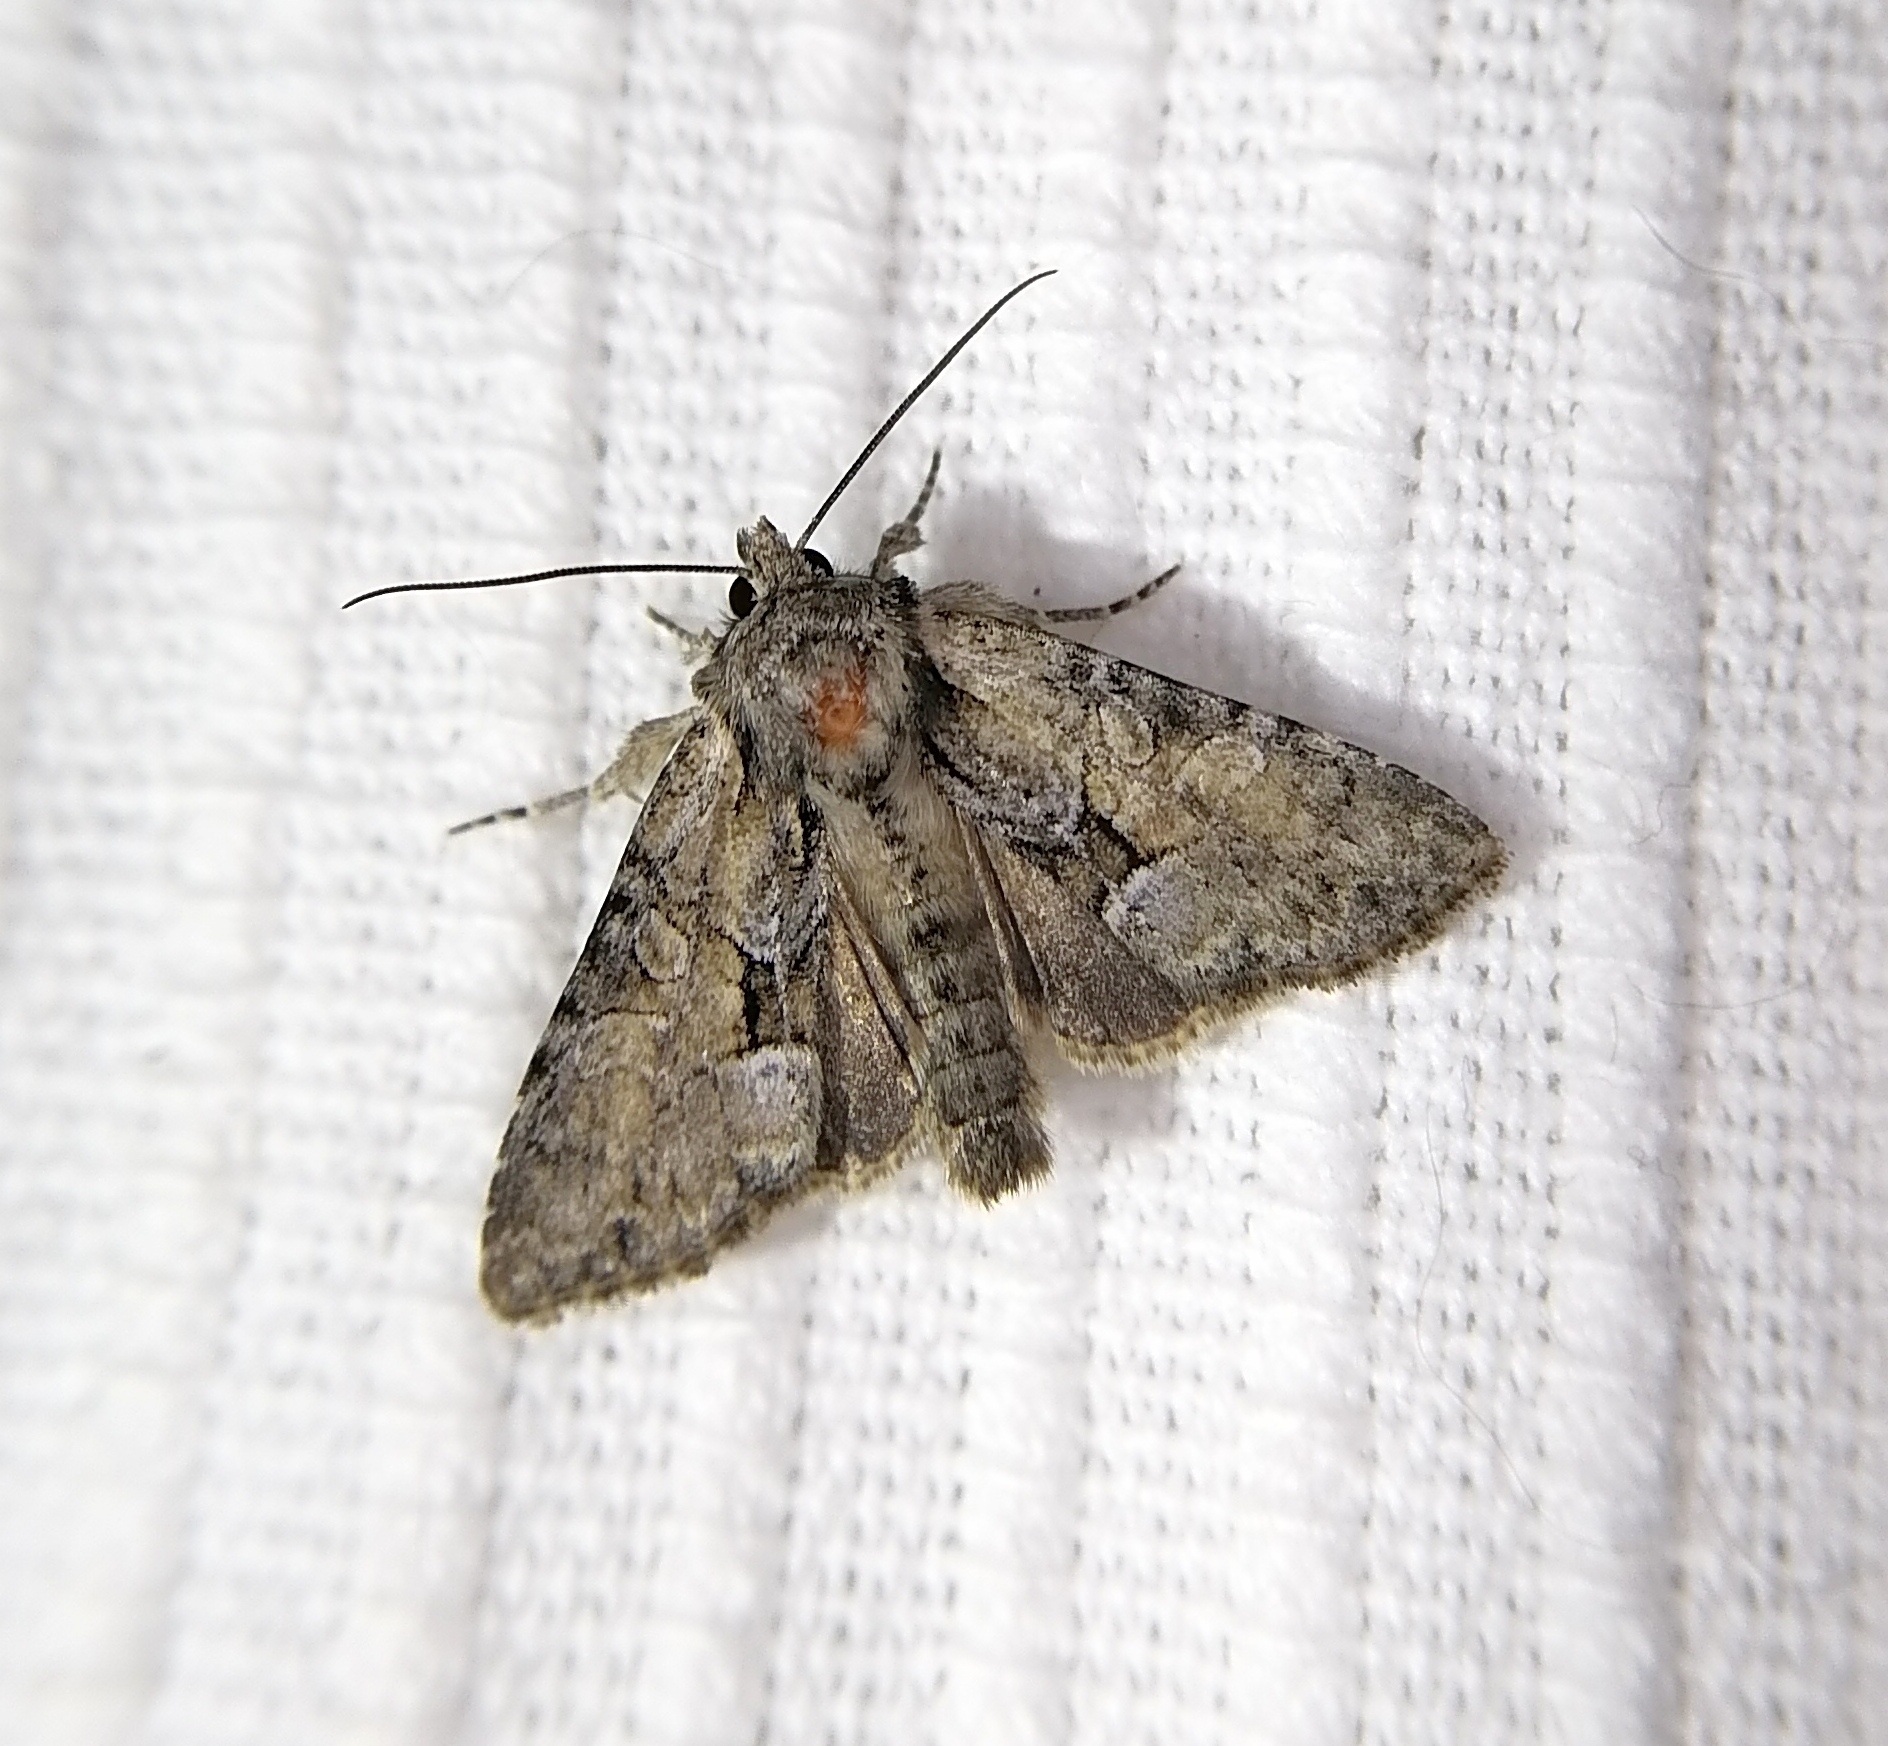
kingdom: Animalia
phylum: Arthropoda
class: Insecta
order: Lepidoptera
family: Noctuidae
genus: Pabulatrix
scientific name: Pabulatrix pabulatricula
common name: Union rustic
